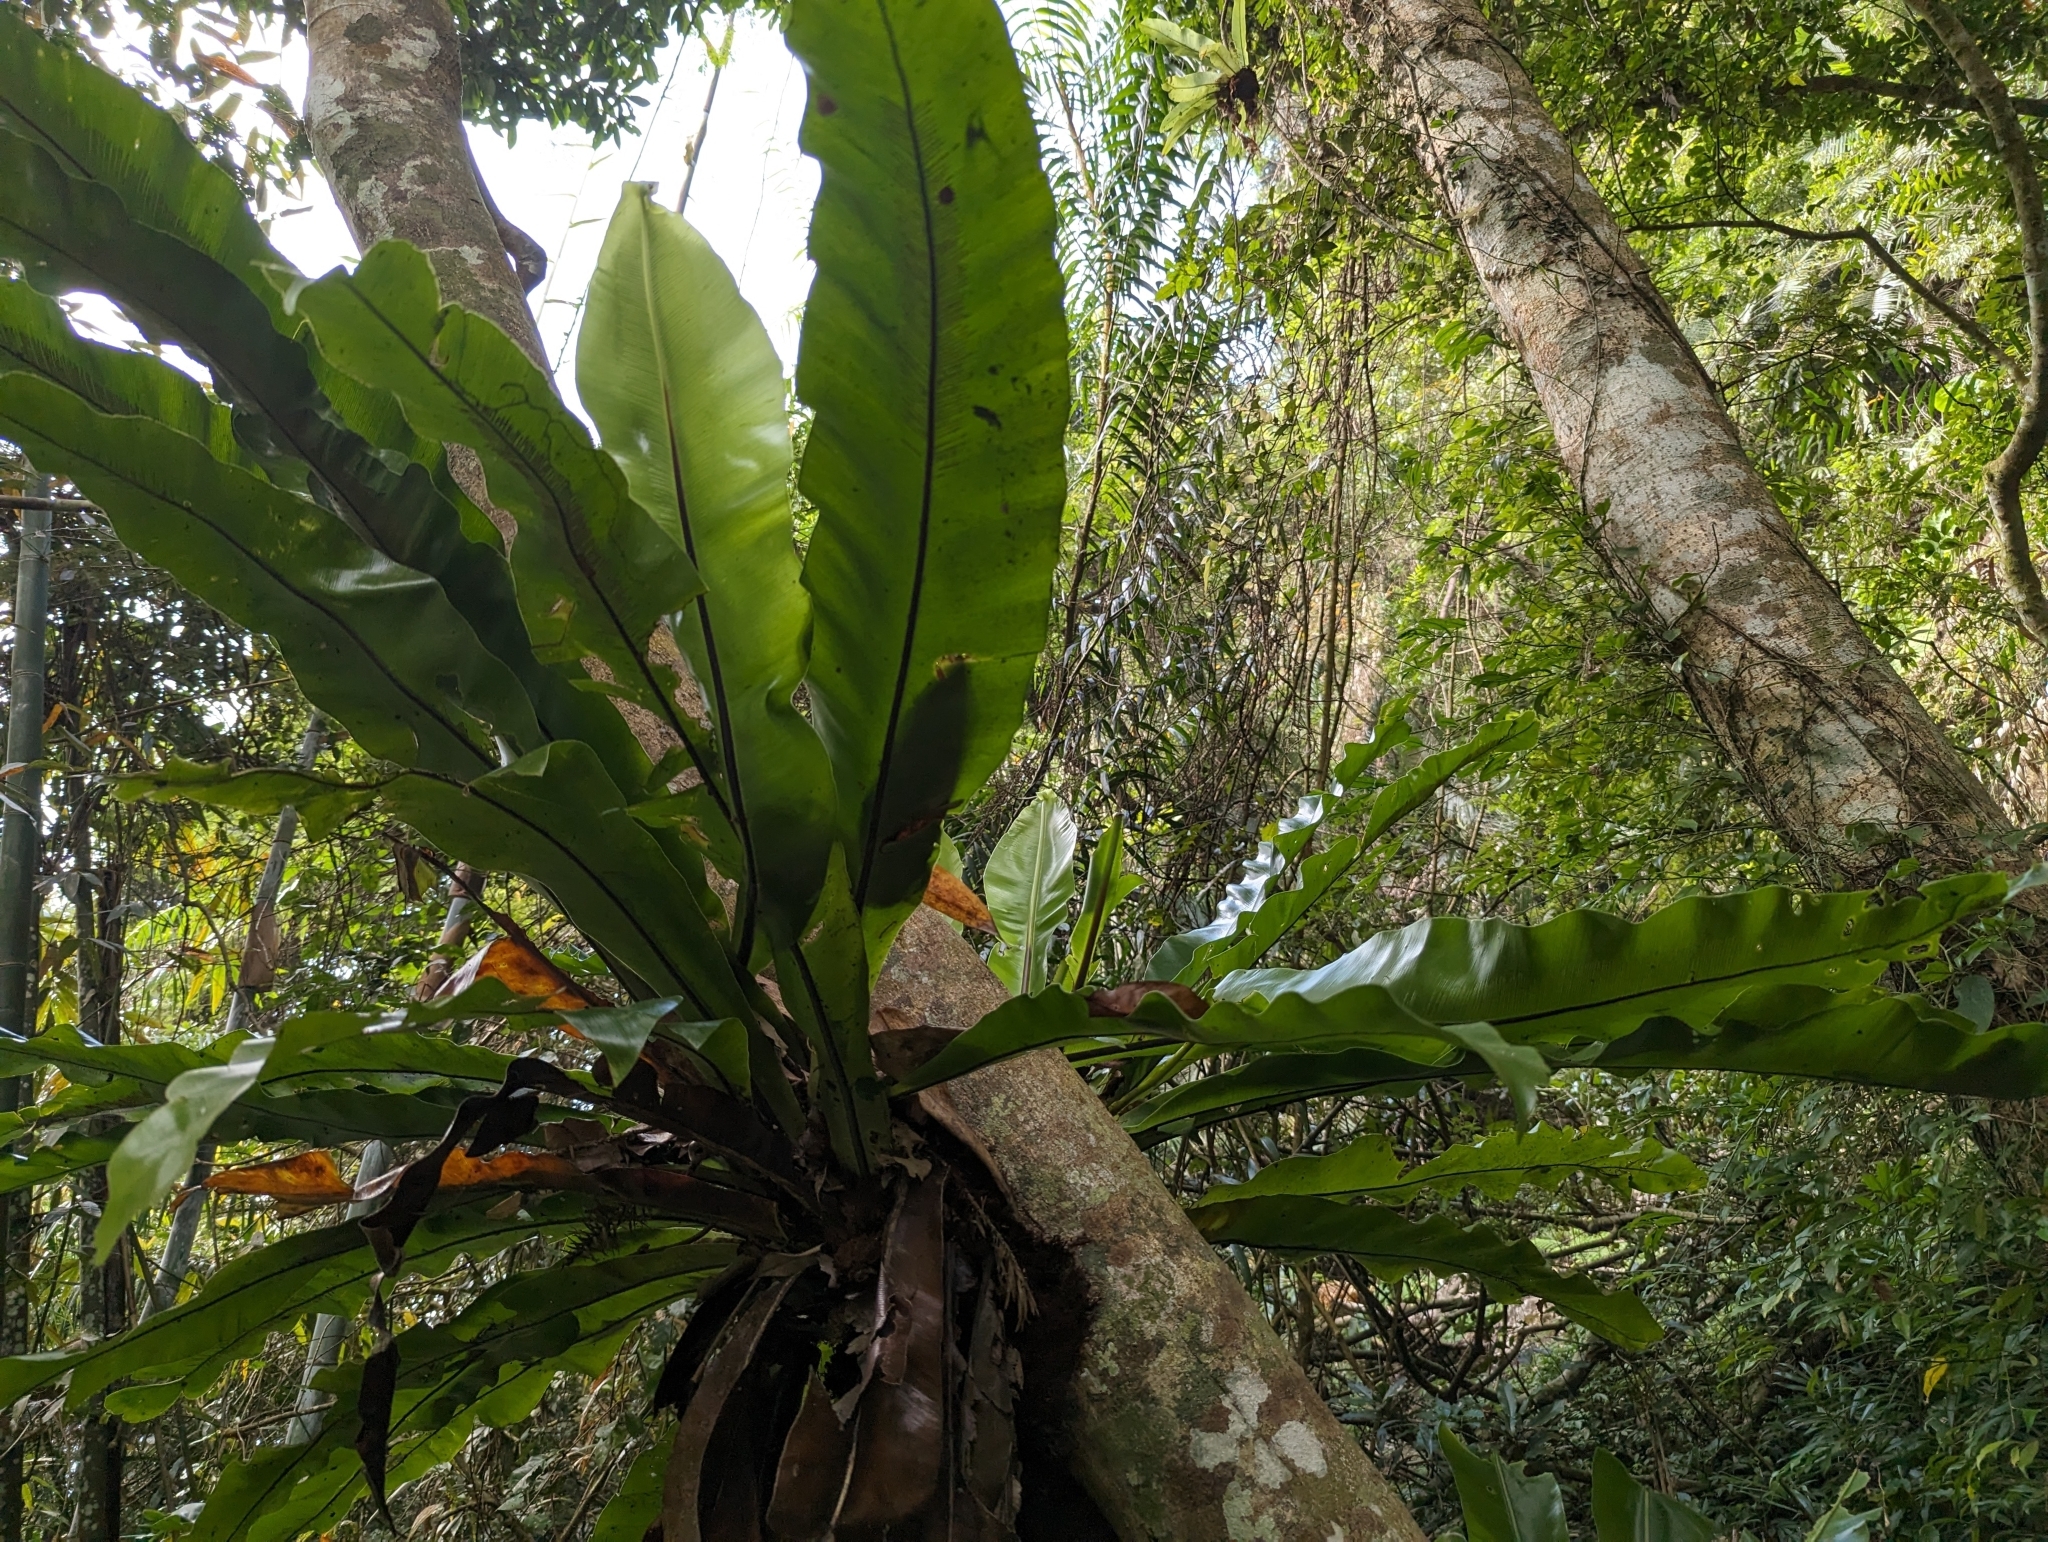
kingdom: Plantae
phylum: Tracheophyta
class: Polypodiopsida
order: Polypodiales
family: Aspleniaceae
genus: Asplenium
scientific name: Asplenium nidus
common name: Bird's-nest fern
